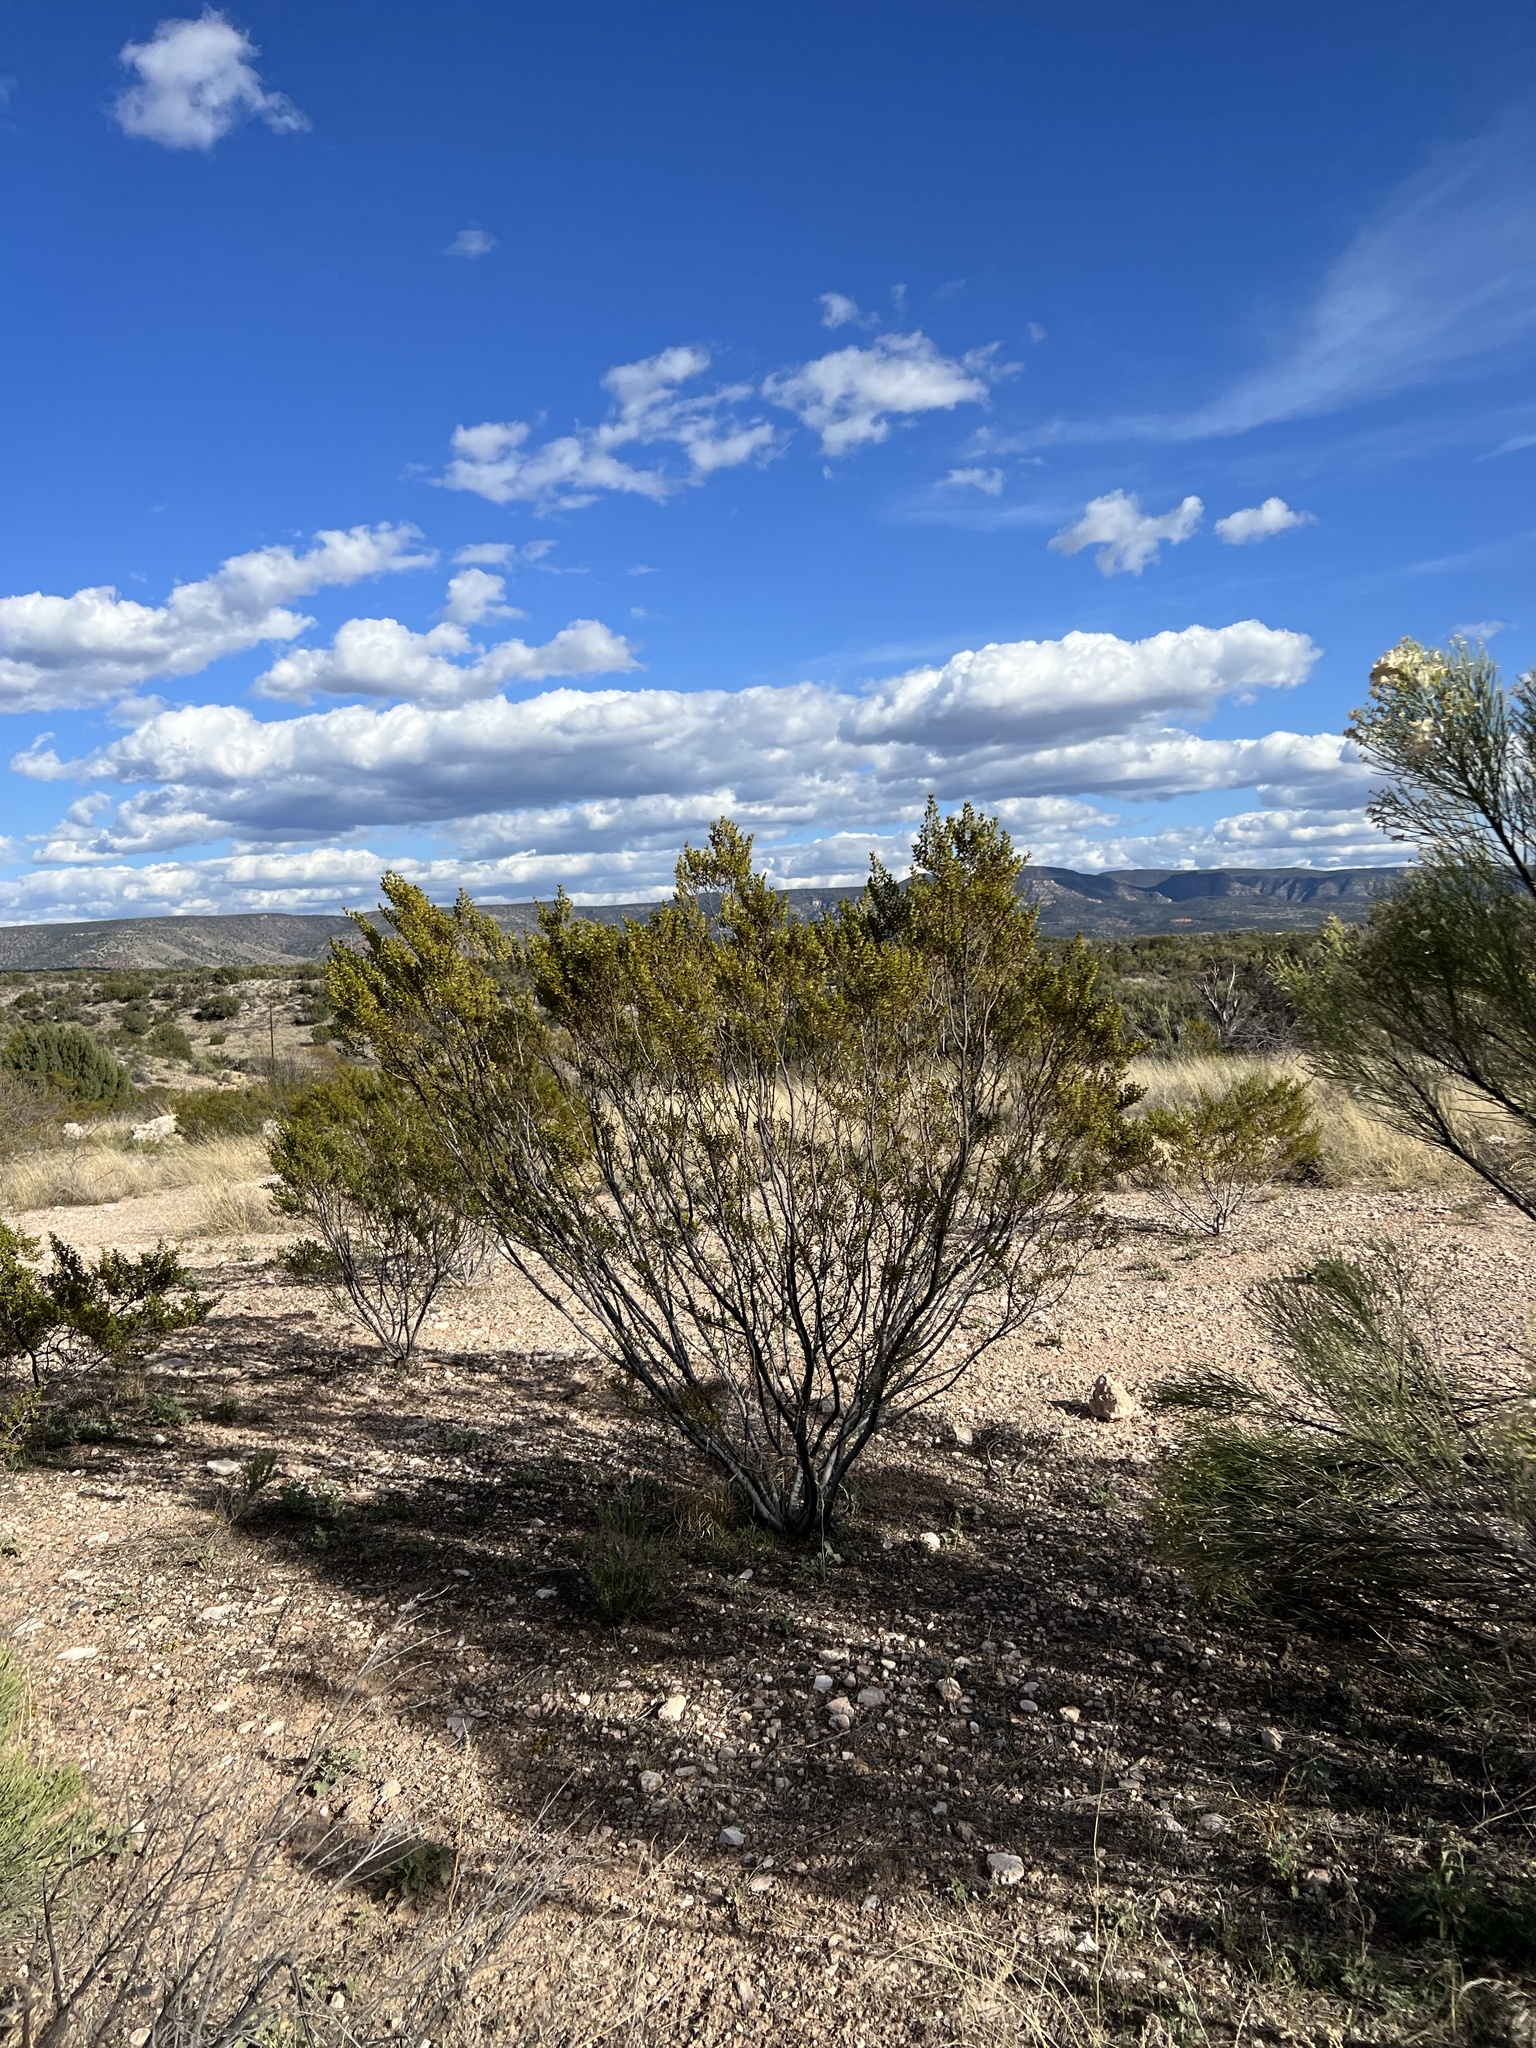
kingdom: Plantae
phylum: Tracheophyta
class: Magnoliopsida
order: Zygophyllales
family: Zygophyllaceae
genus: Larrea
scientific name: Larrea tridentata
